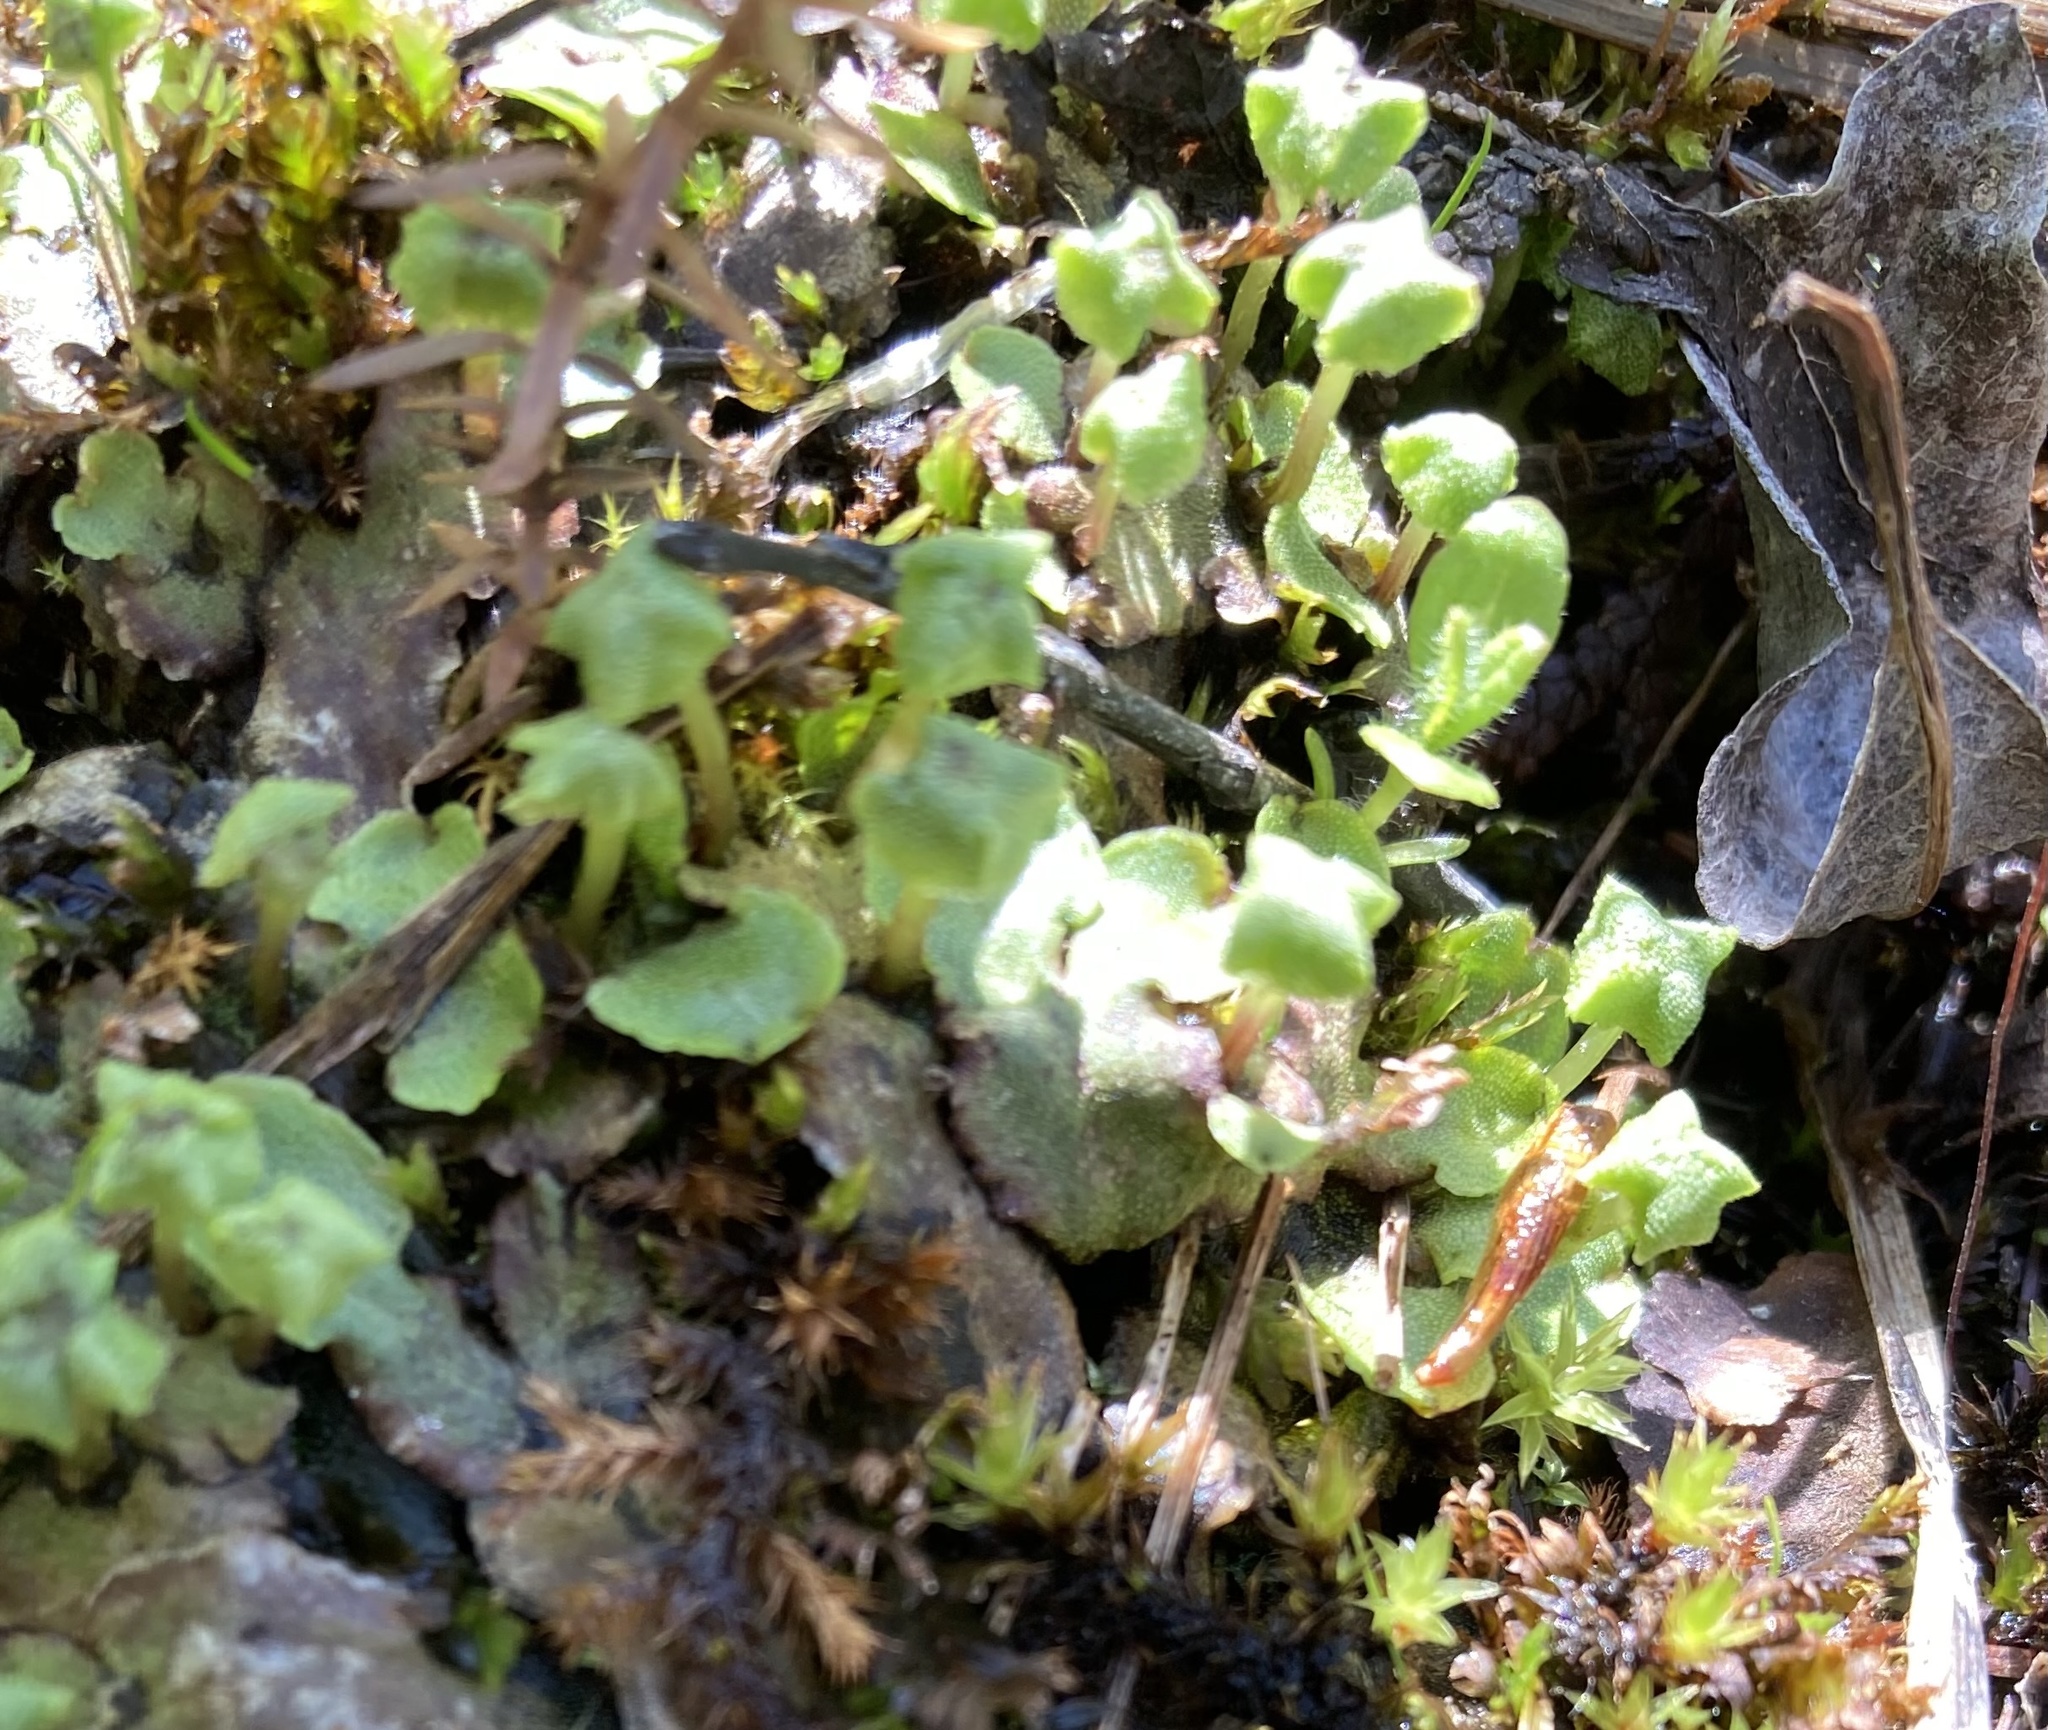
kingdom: Plantae
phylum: Marchantiophyta
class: Marchantiopsida
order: Marchantiales
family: Marchantiaceae
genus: Marchantia
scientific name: Marchantia quadrata
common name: Narrow mushroom-headed liverwort
